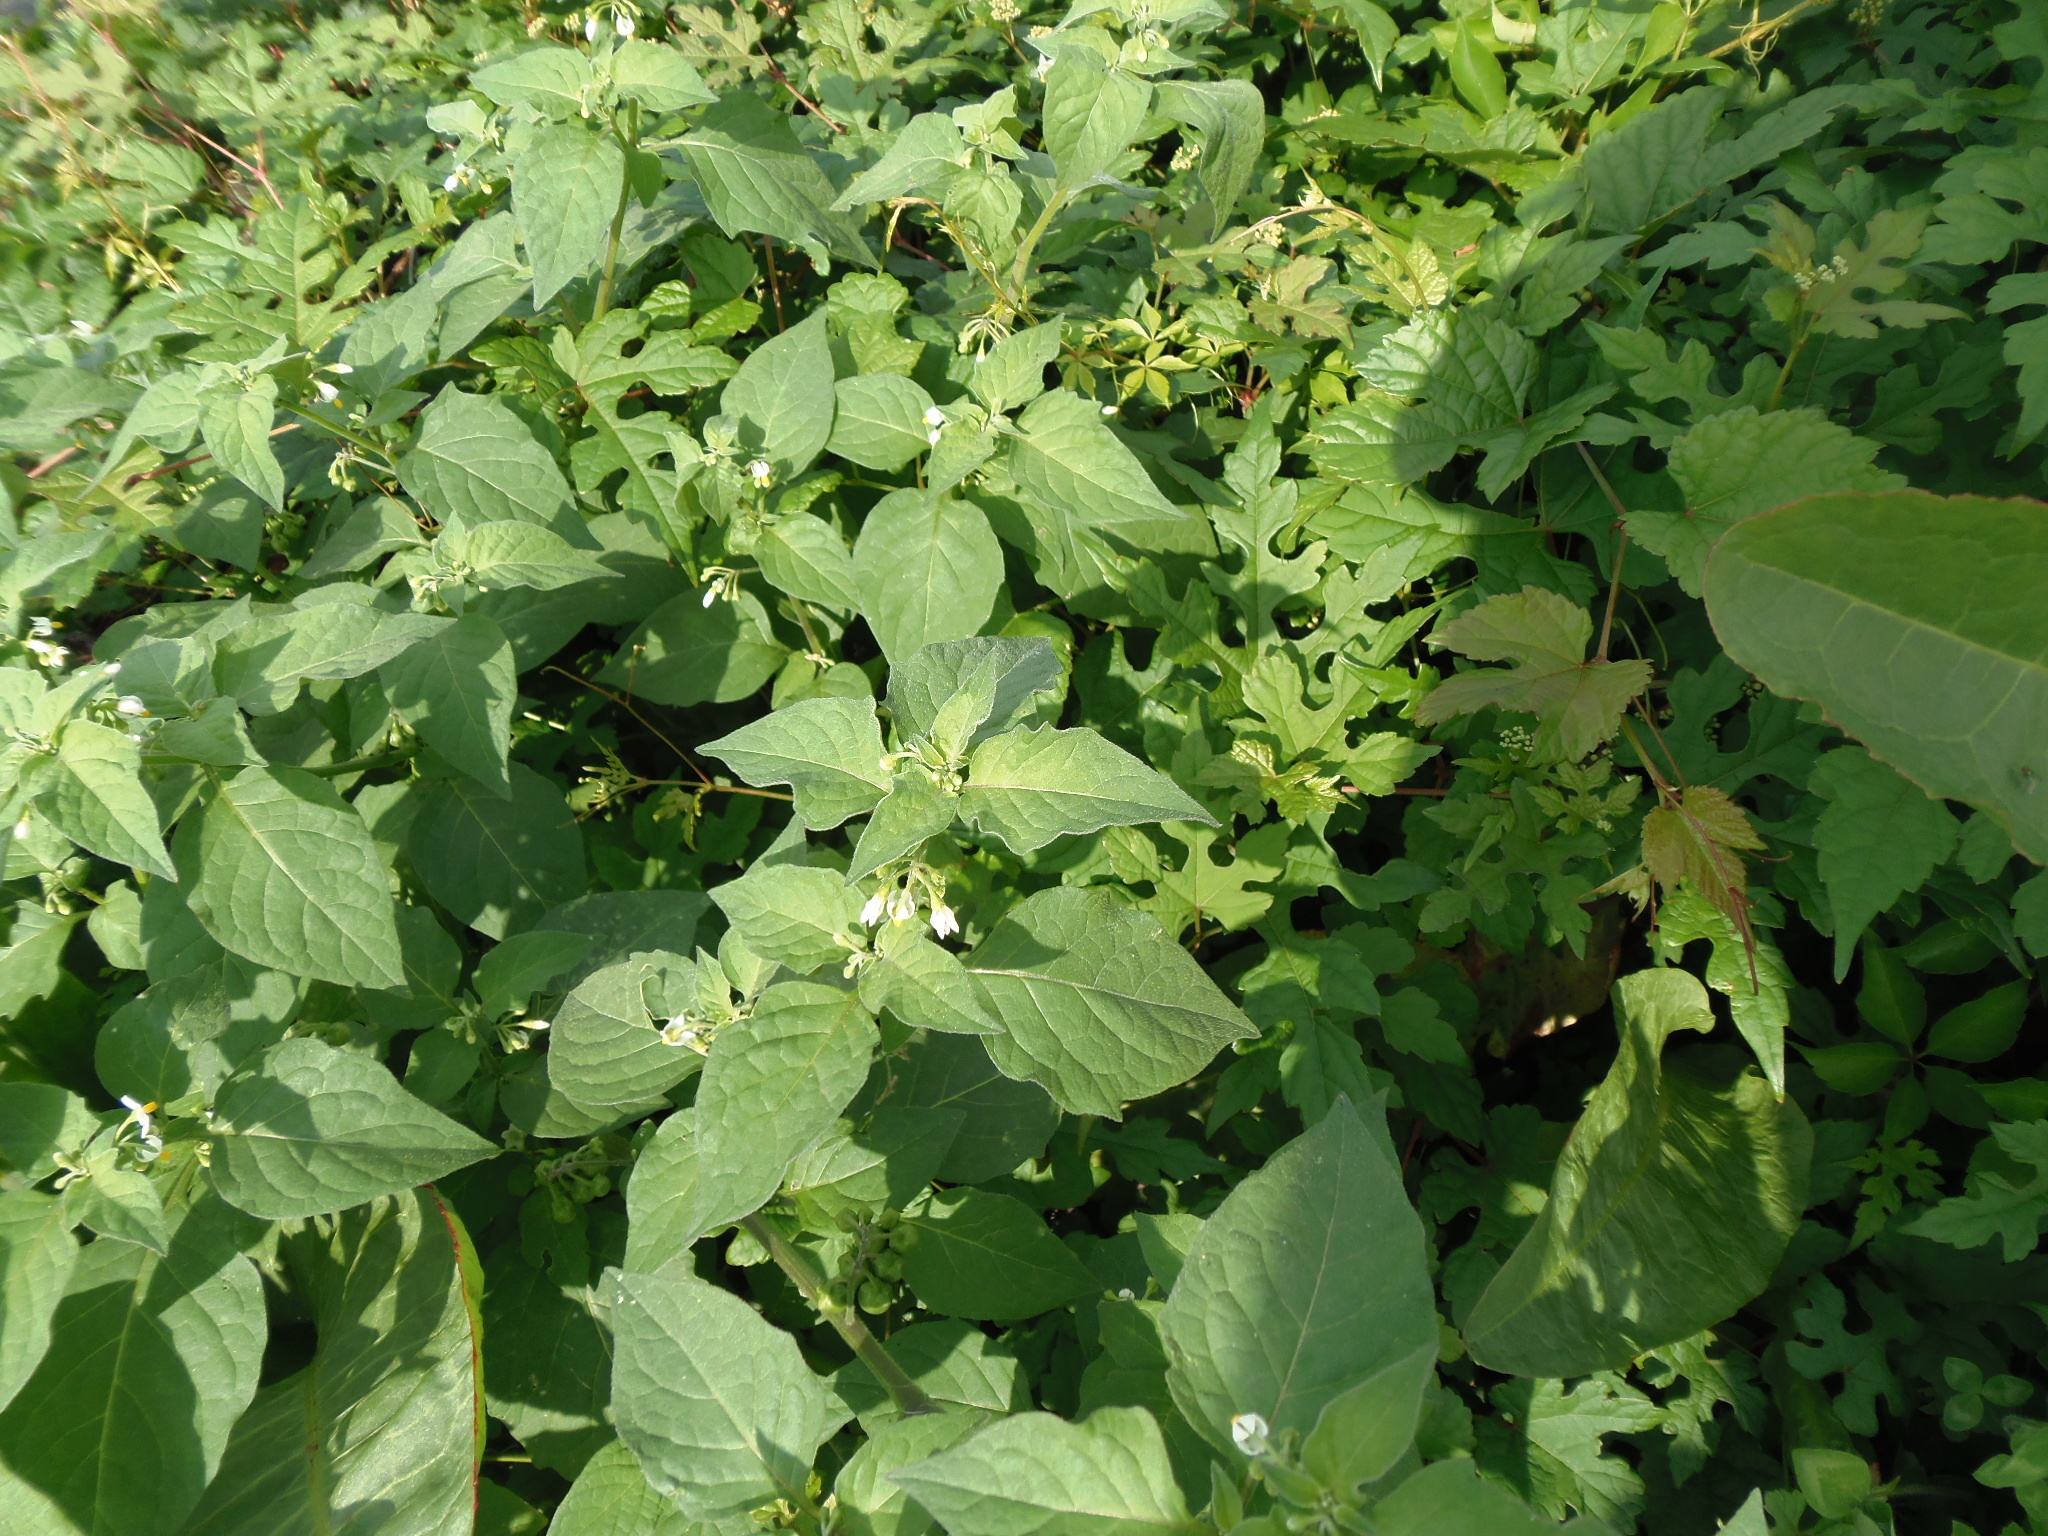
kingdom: Plantae
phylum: Tracheophyta
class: Magnoliopsida
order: Solanales
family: Solanaceae
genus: Solanum
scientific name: Solanum nigrum
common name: Black nightshade
